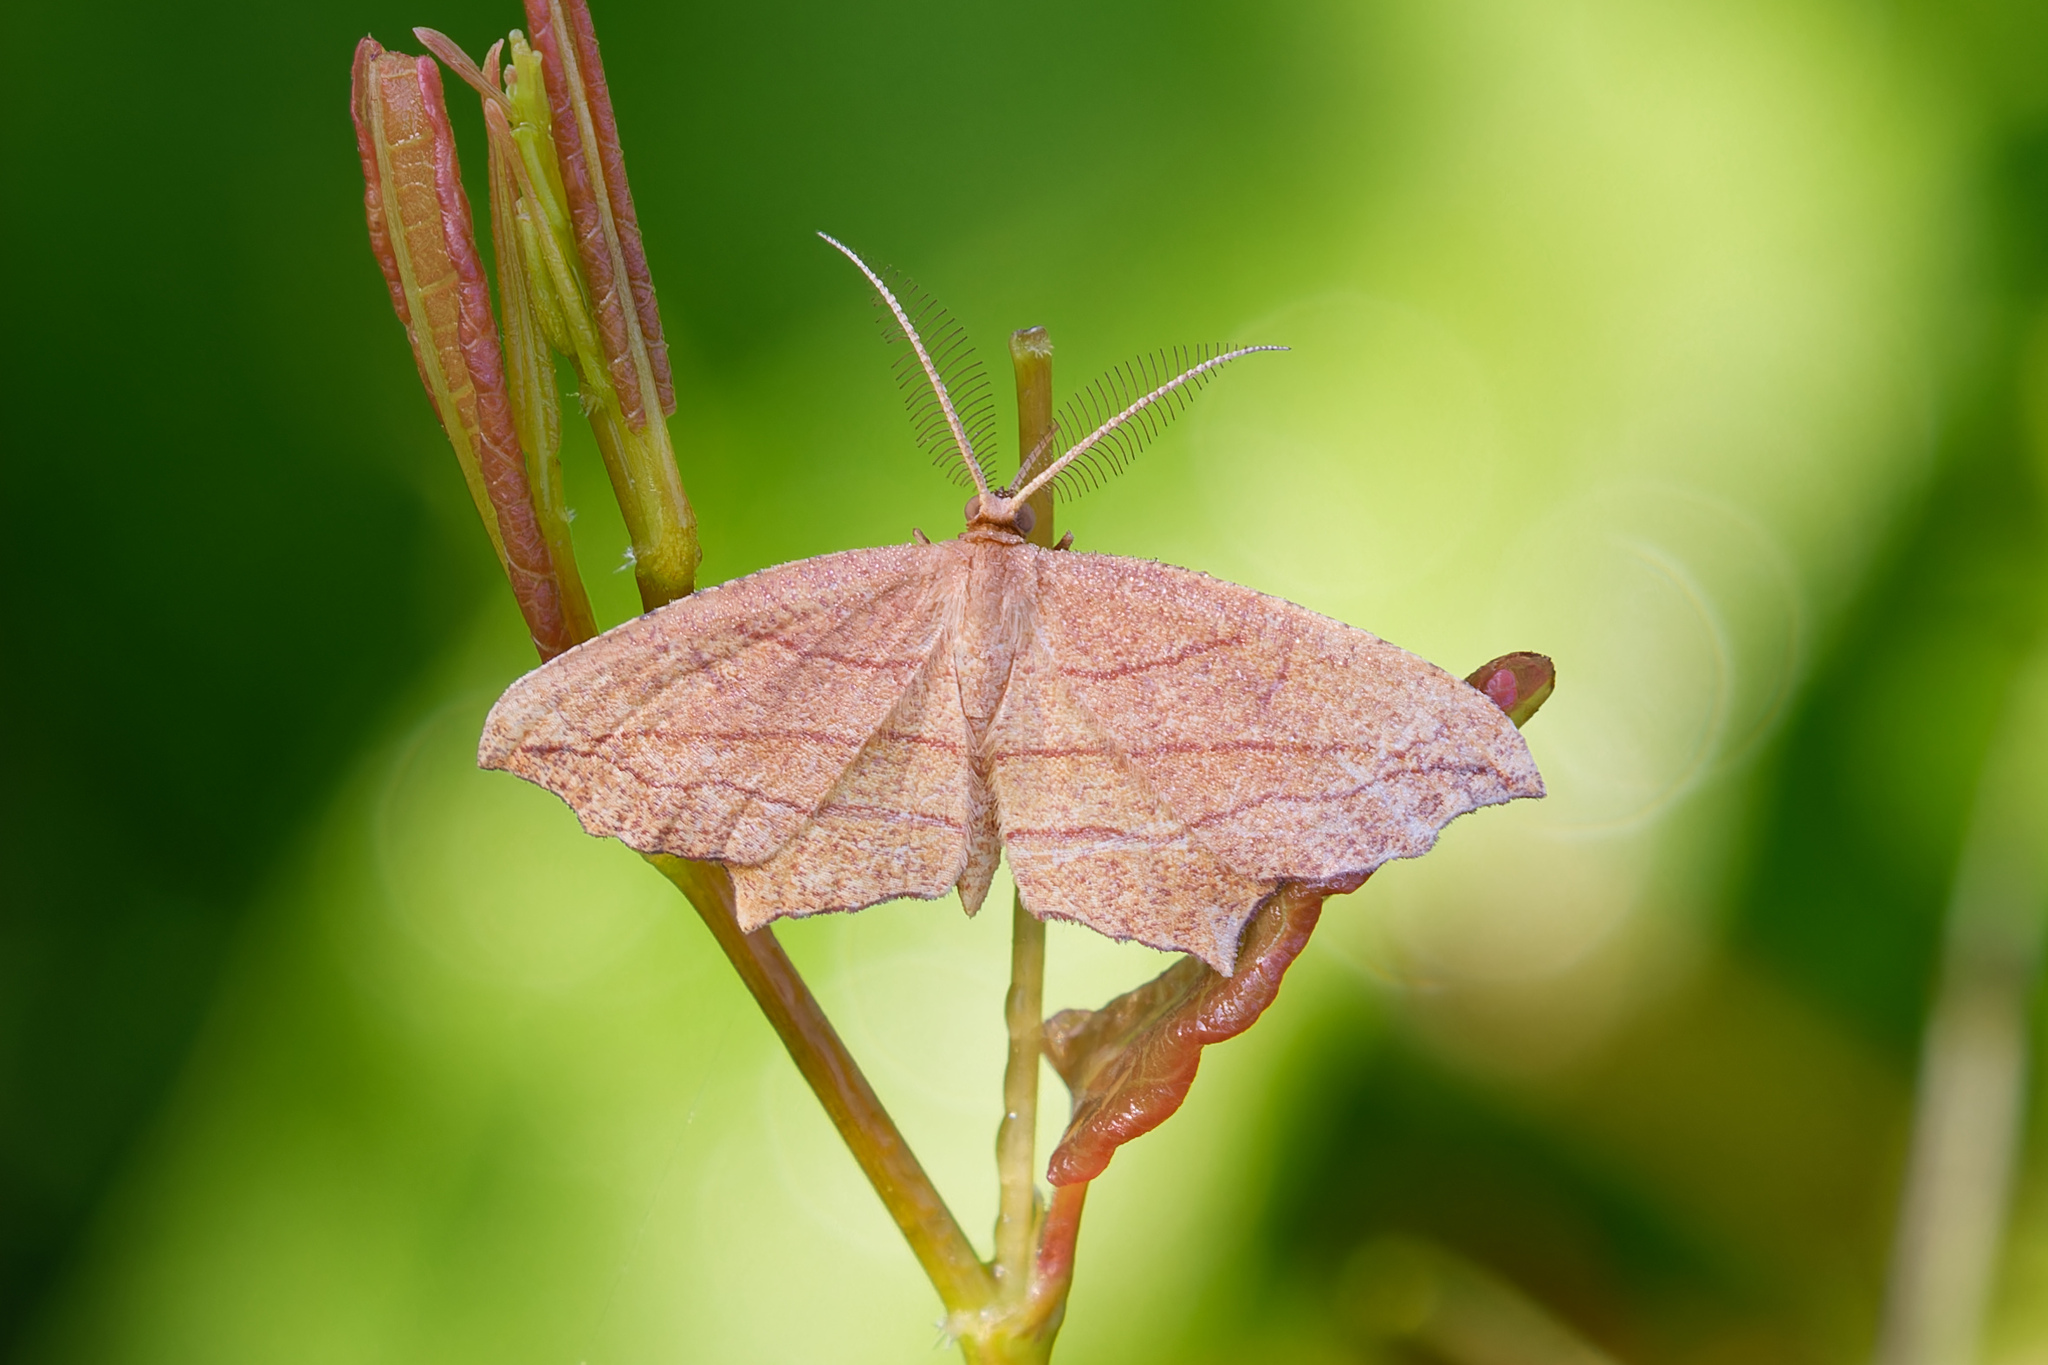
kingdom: Animalia
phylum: Arthropoda
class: Insecta
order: Lepidoptera
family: Geometridae
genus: Timandra
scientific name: Timandra amaturaria
